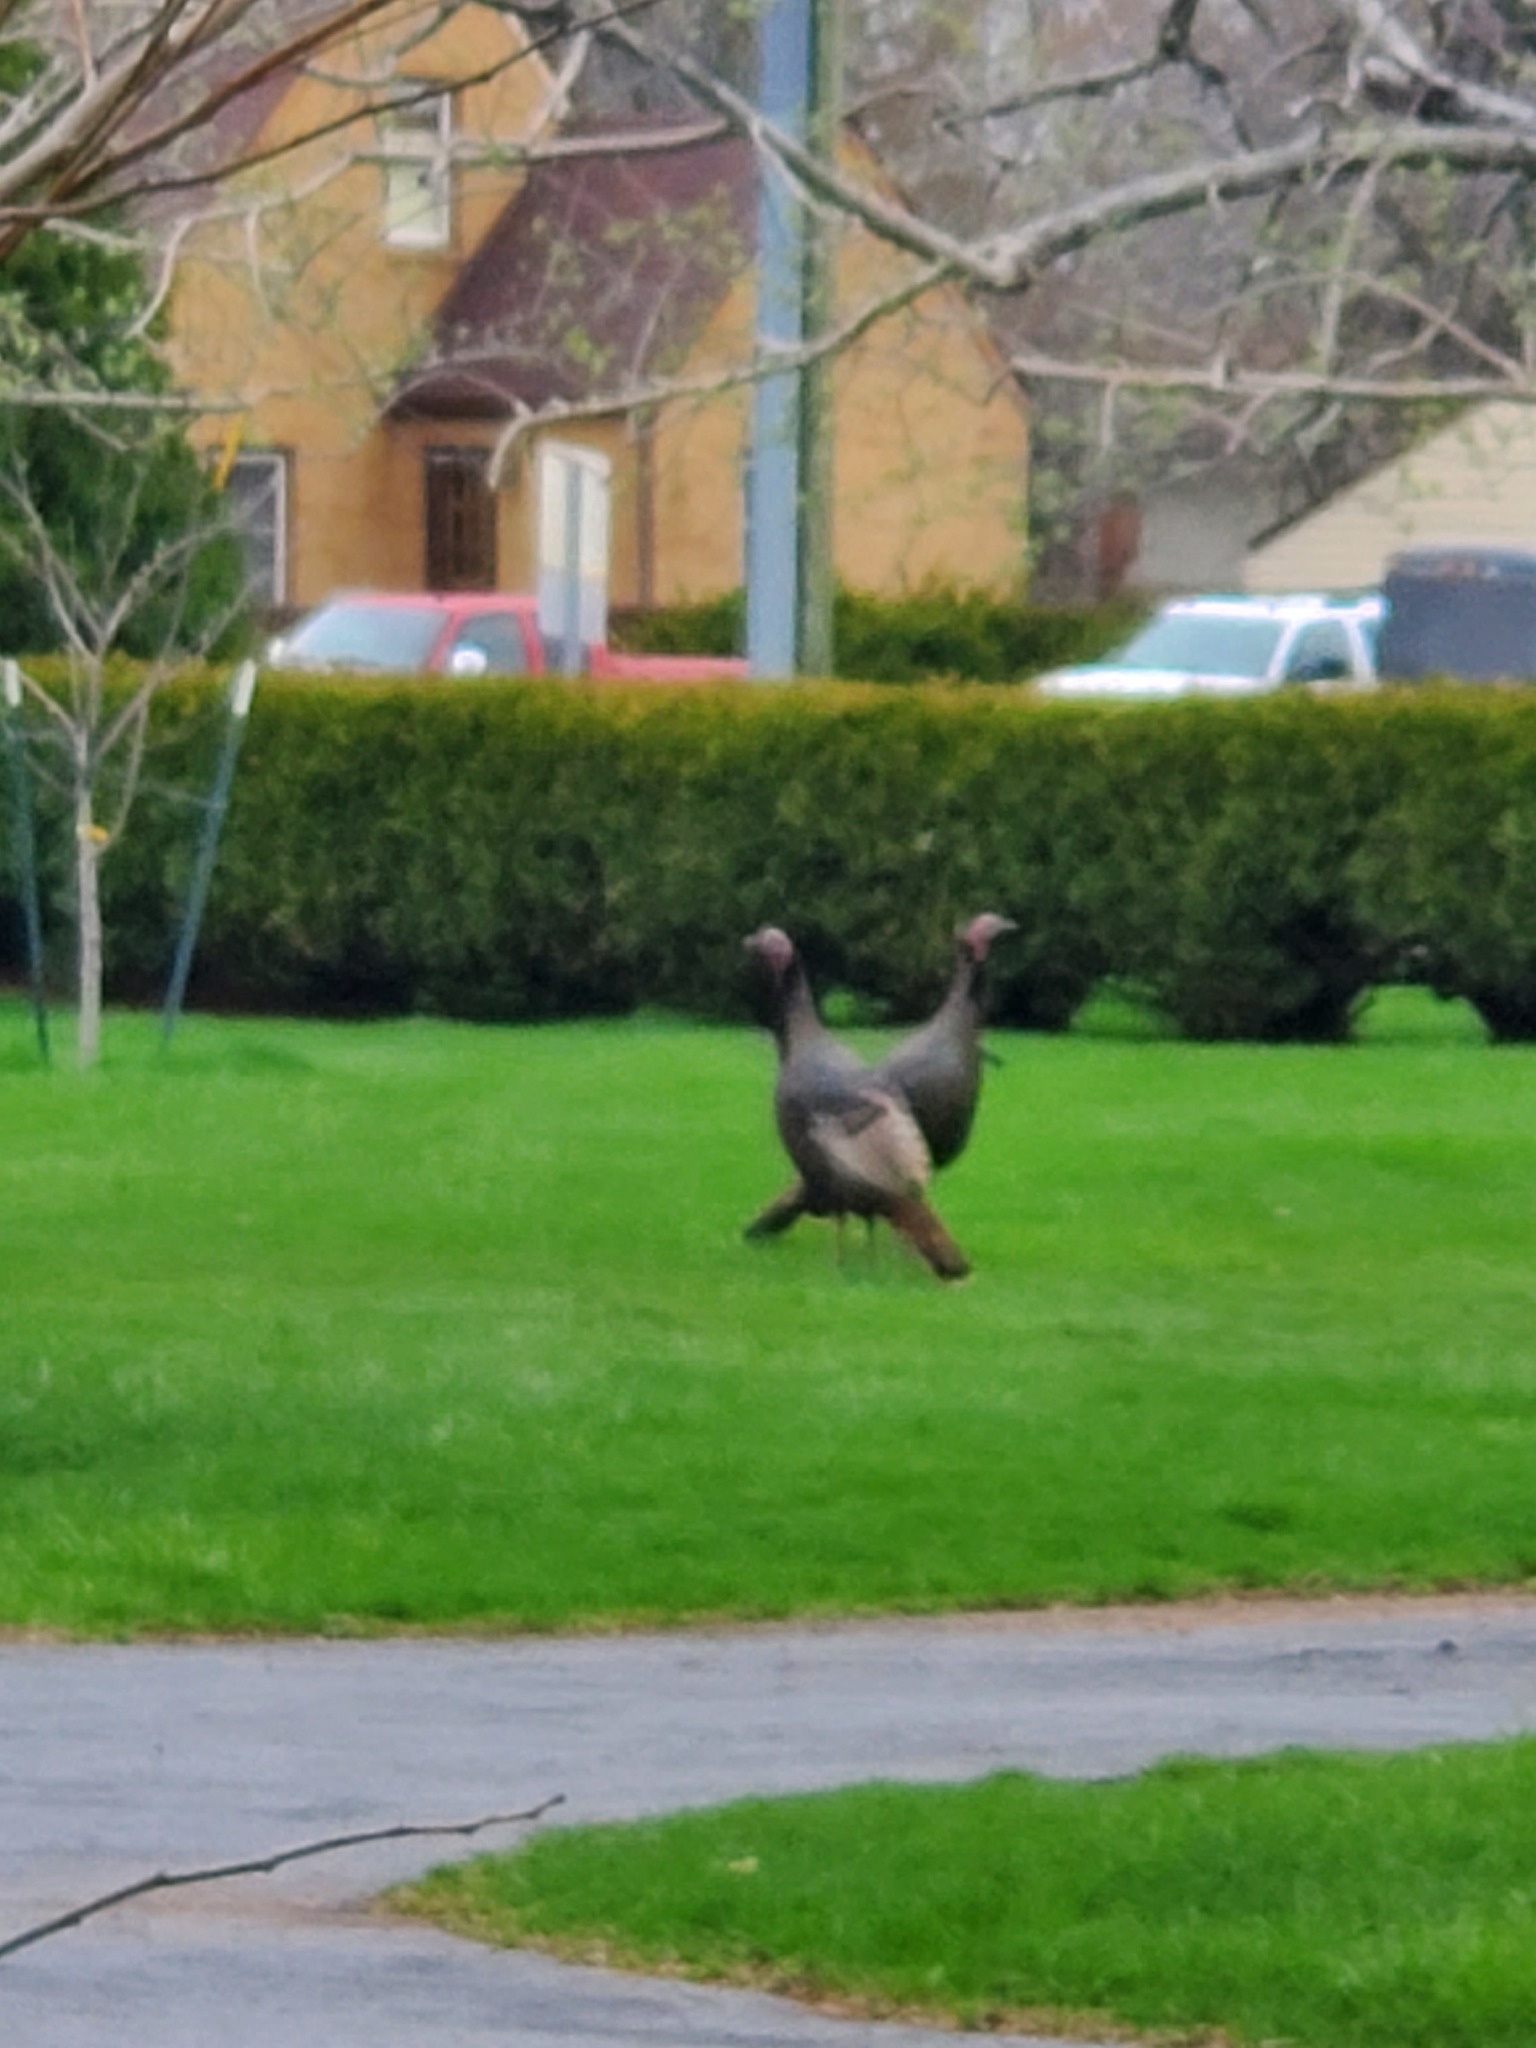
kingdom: Animalia
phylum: Chordata
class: Aves
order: Galliformes
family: Phasianidae
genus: Meleagris
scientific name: Meleagris gallopavo
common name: Wild turkey
